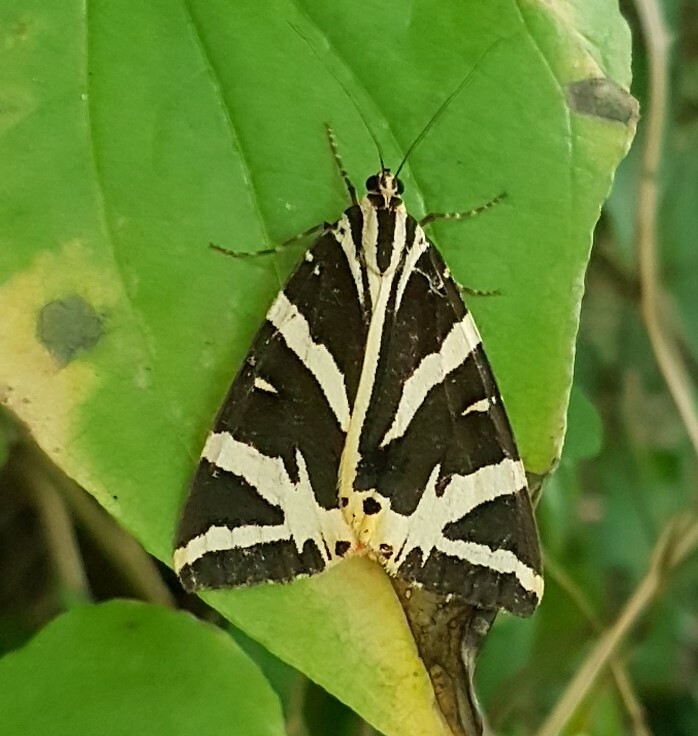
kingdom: Animalia
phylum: Arthropoda
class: Insecta
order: Lepidoptera
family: Erebidae
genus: Euplagia
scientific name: Euplagia quadripunctaria
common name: Jersey tiger
